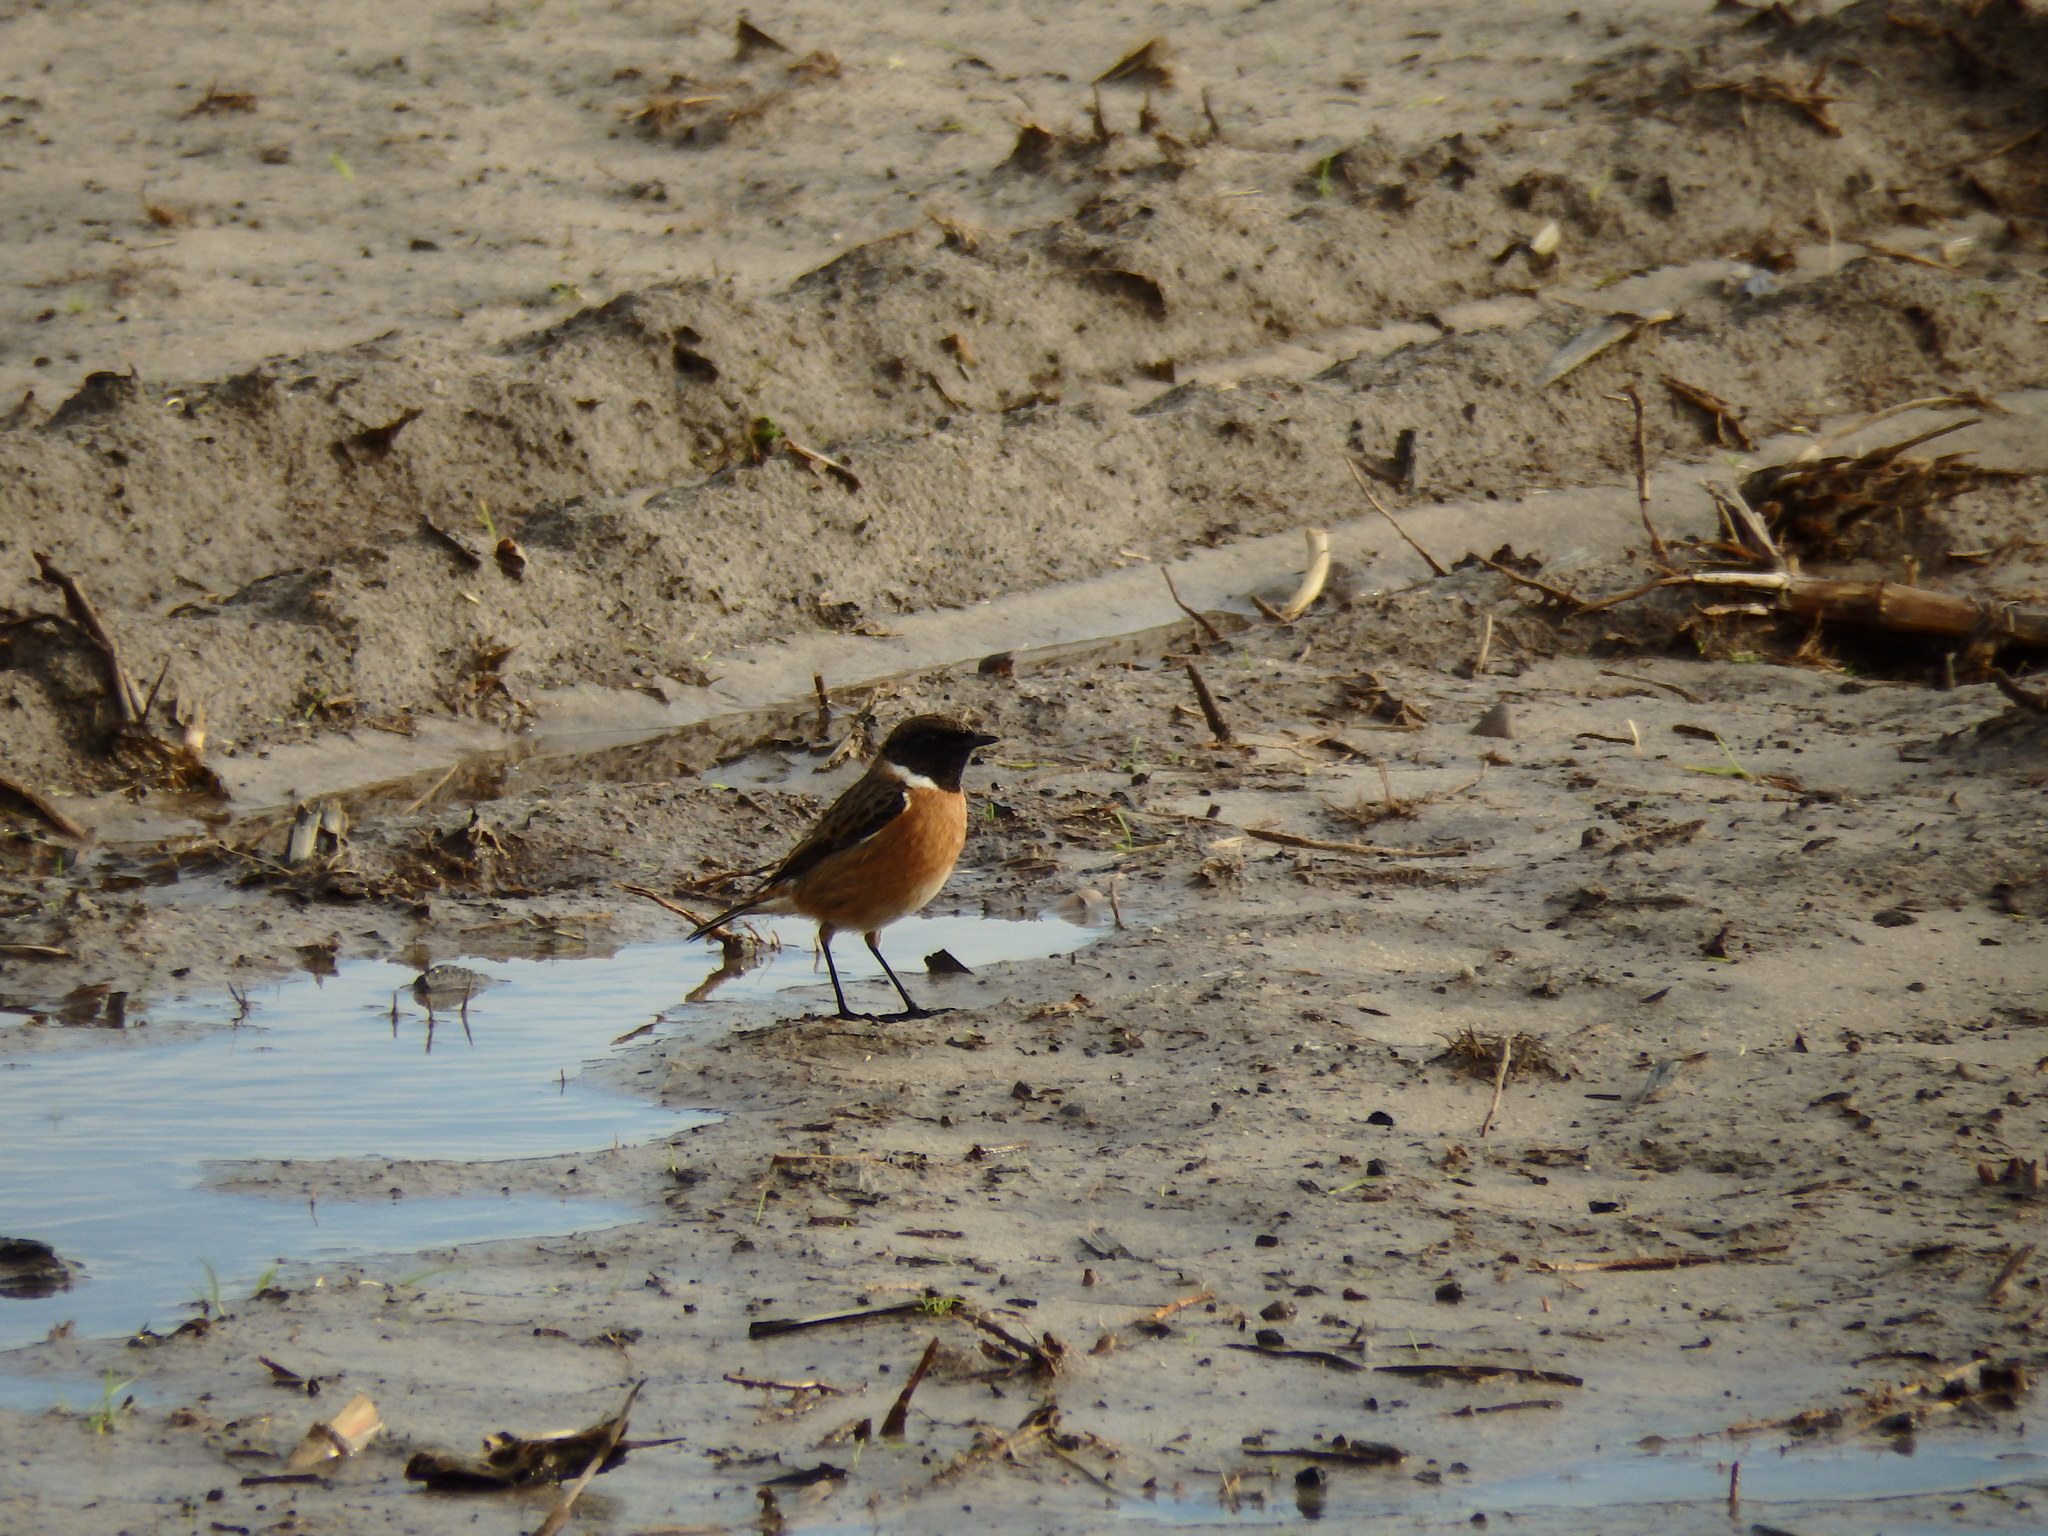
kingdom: Animalia
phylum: Chordata
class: Aves
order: Passeriformes
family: Muscicapidae
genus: Saxicola
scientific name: Saxicola rubicola
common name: European stonechat
